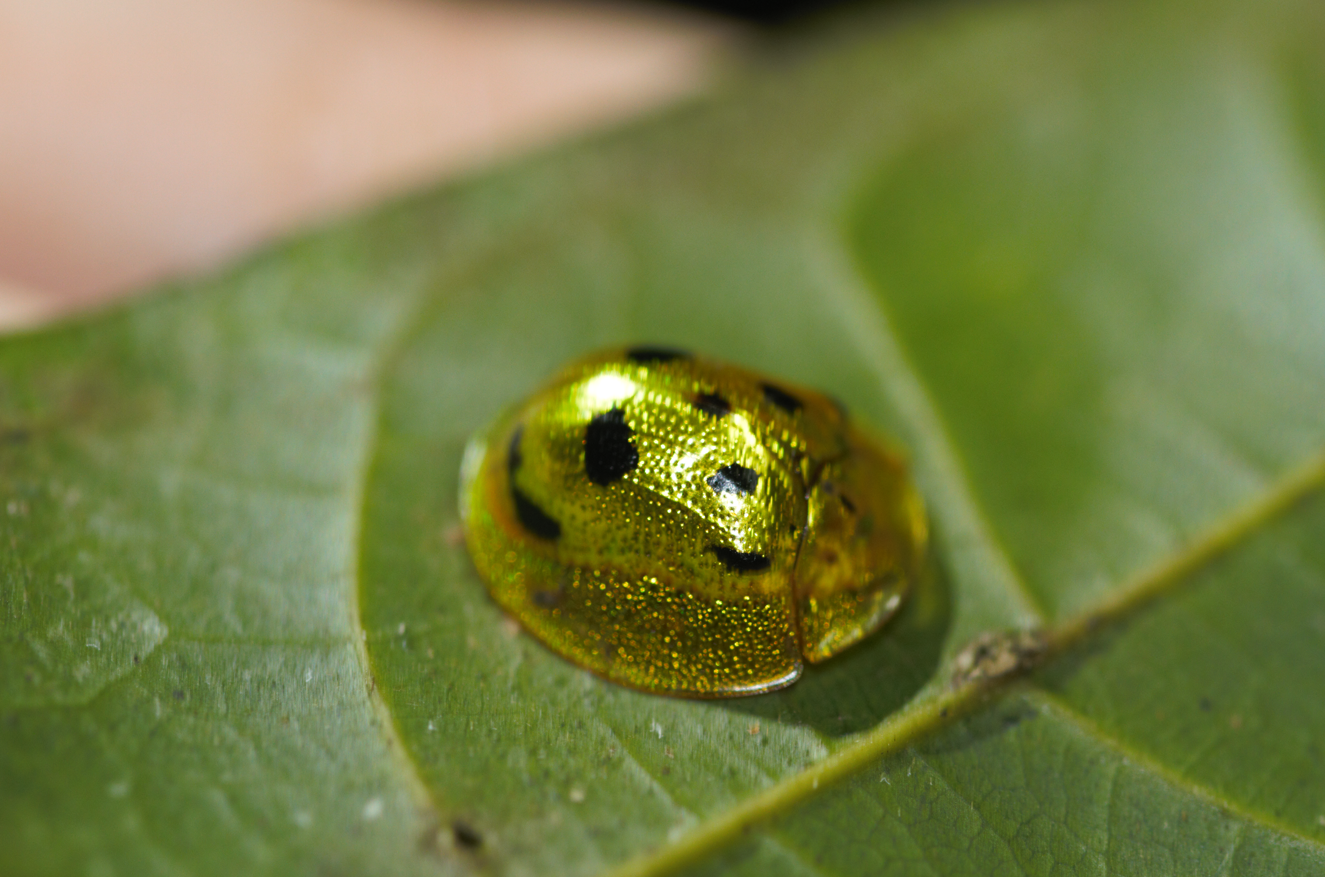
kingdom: Animalia
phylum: Arthropoda
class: Insecta
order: Coleoptera
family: Chrysomelidae
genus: Coptocycla
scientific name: Coptocycla undecimpunctata
